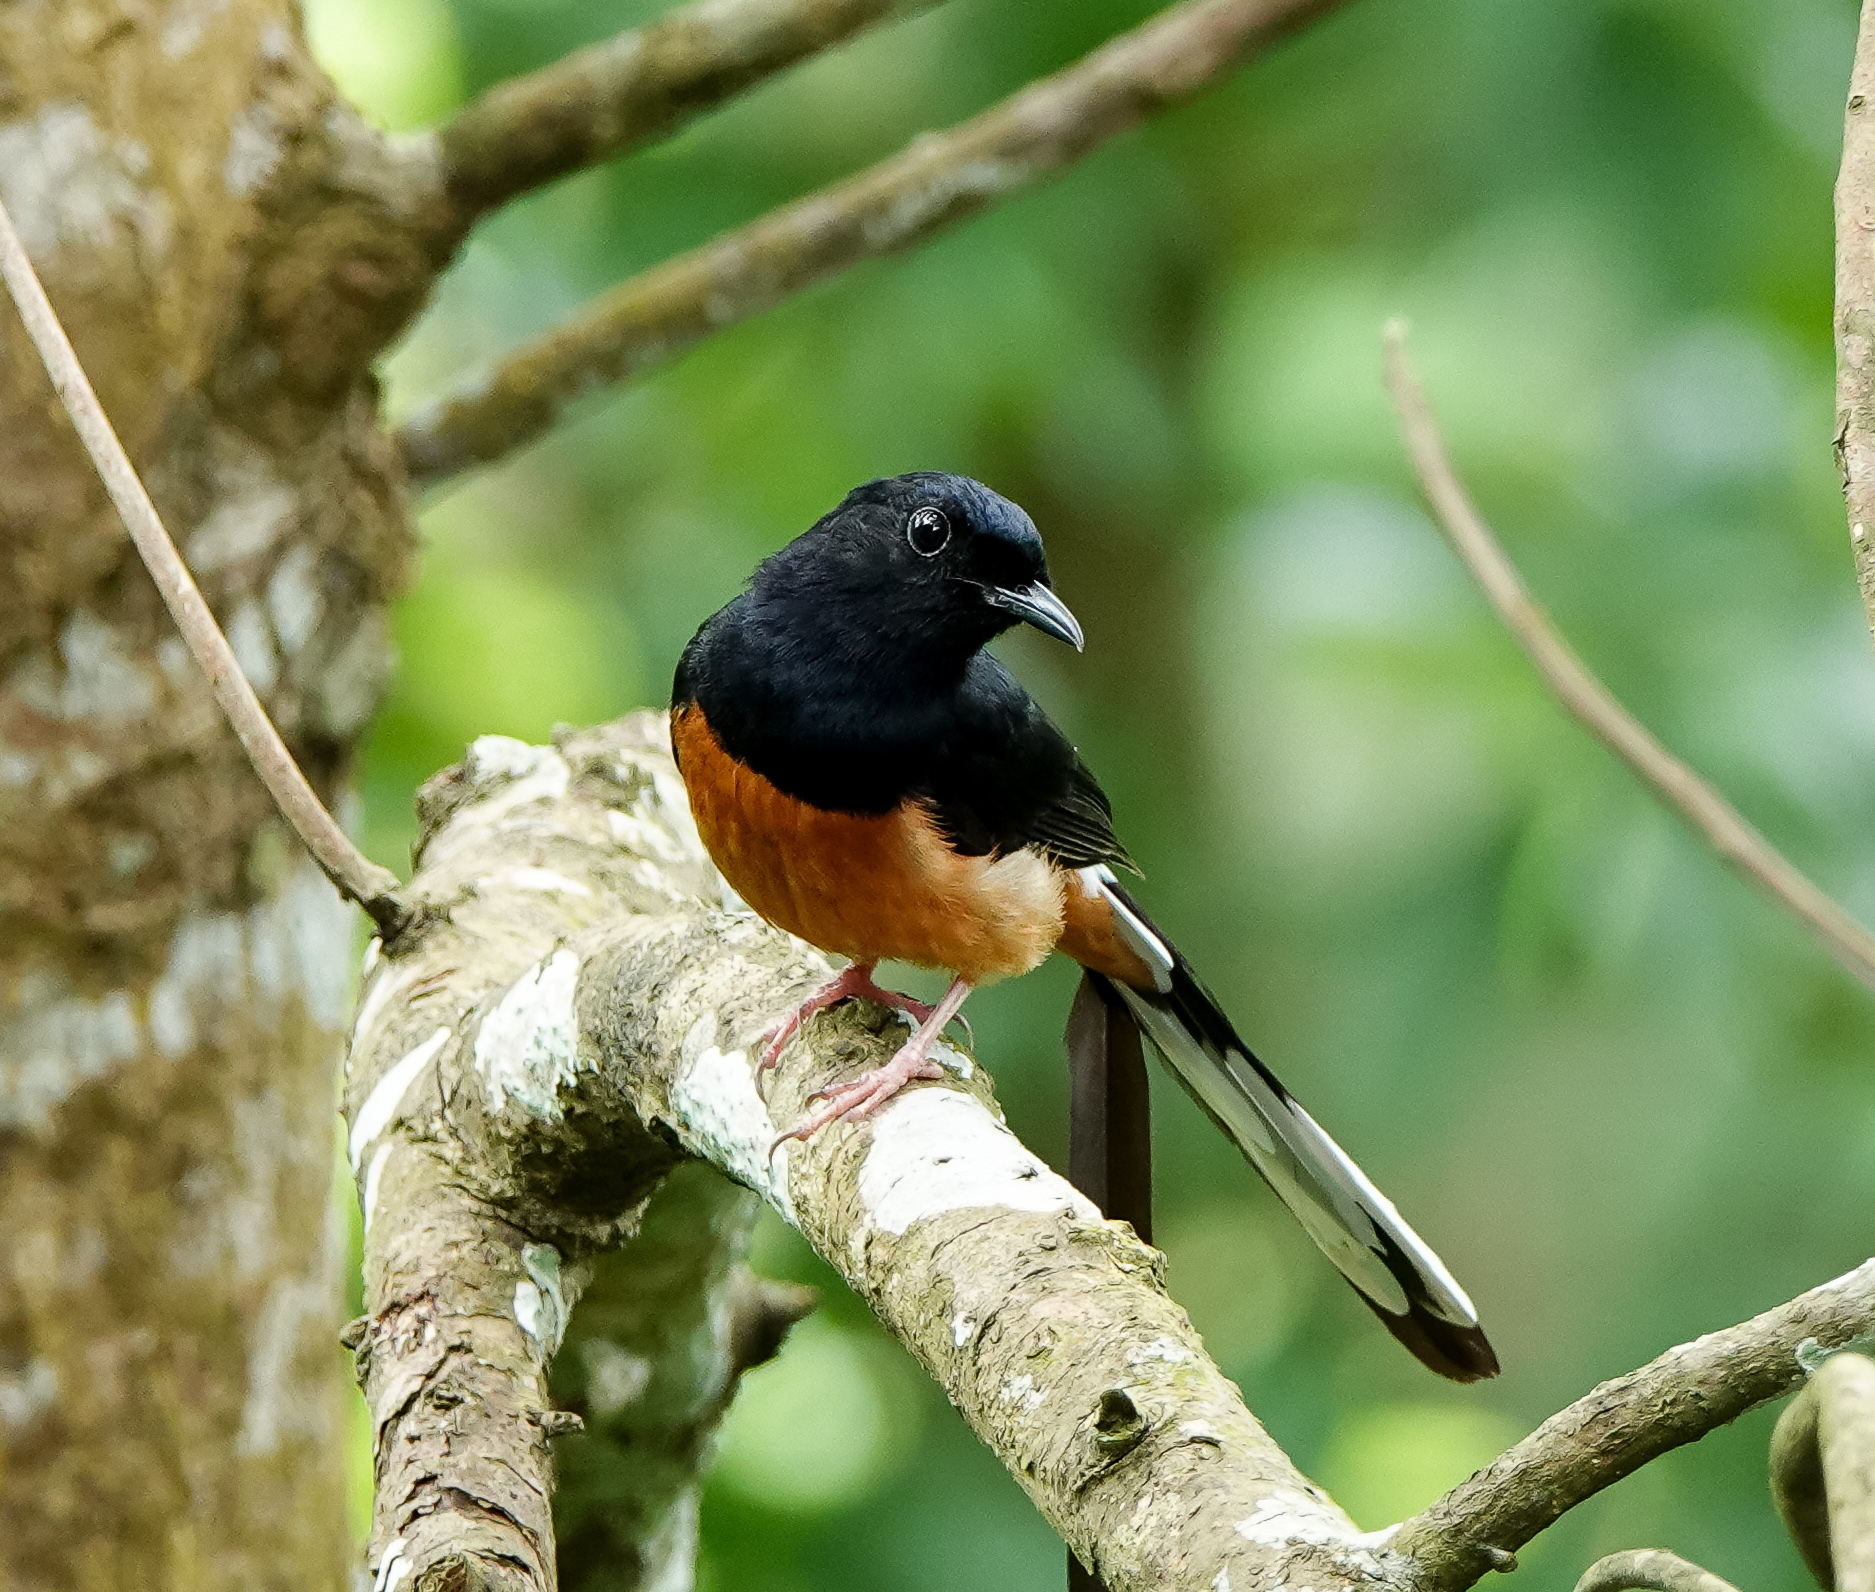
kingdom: Animalia
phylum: Chordata
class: Aves
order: Passeriformes
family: Muscicapidae
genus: Copsychus
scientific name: Copsychus malabaricus
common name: White-rumped shama
